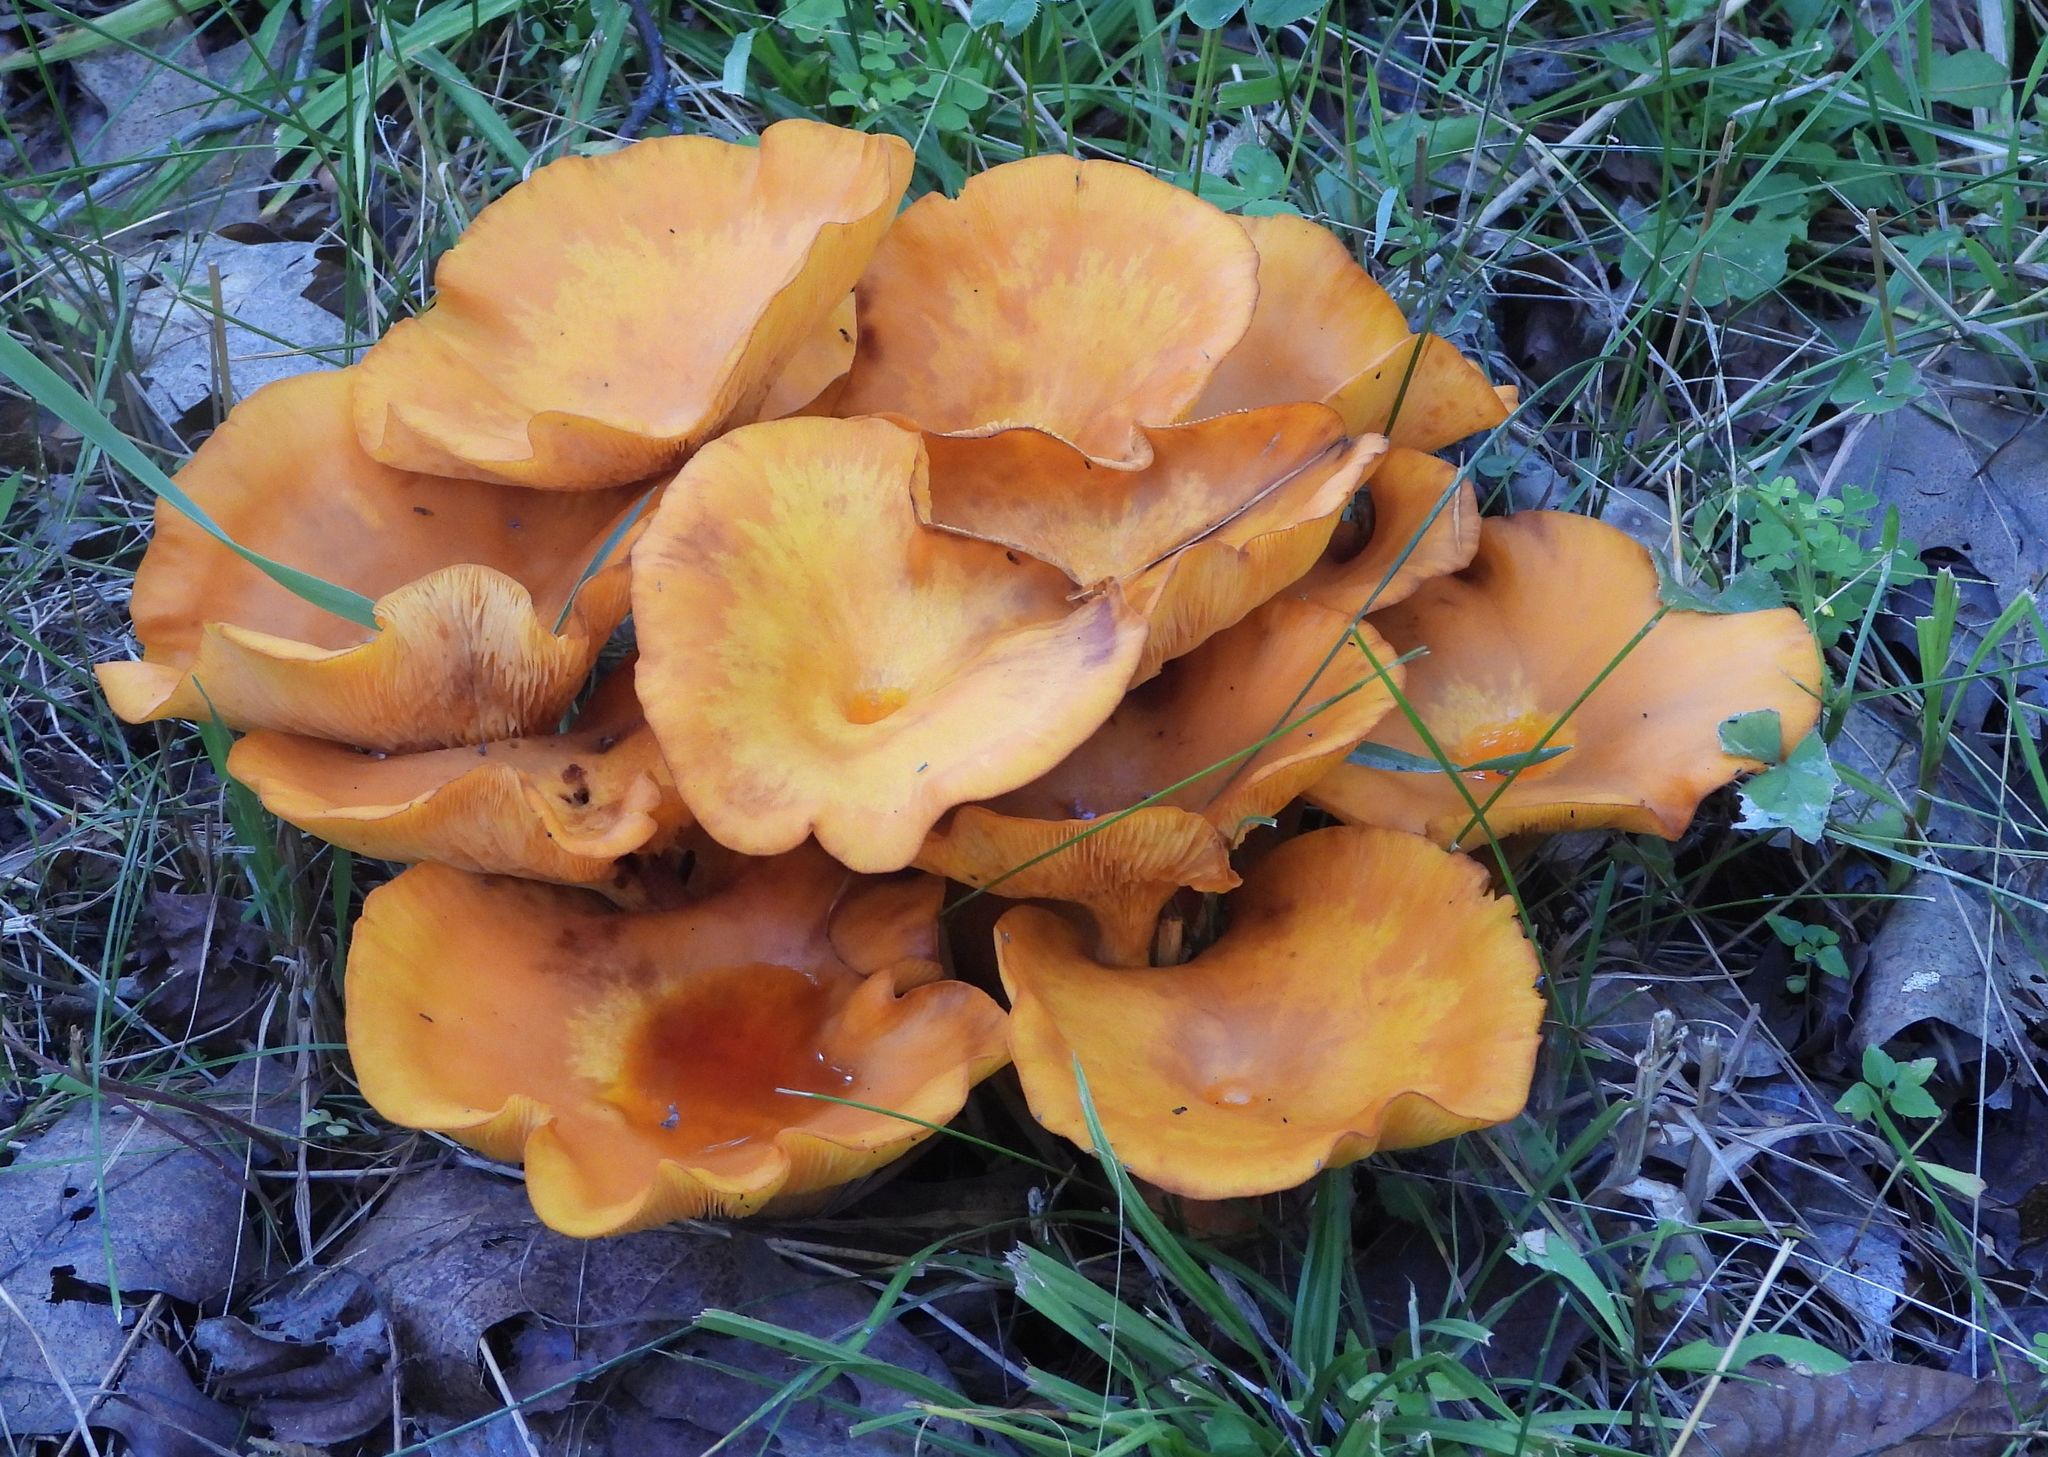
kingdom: Fungi
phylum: Basidiomycota
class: Agaricomycetes
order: Agaricales
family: Omphalotaceae
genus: Omphalotus
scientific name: Omphalotus illudens
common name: Jack o lantern
